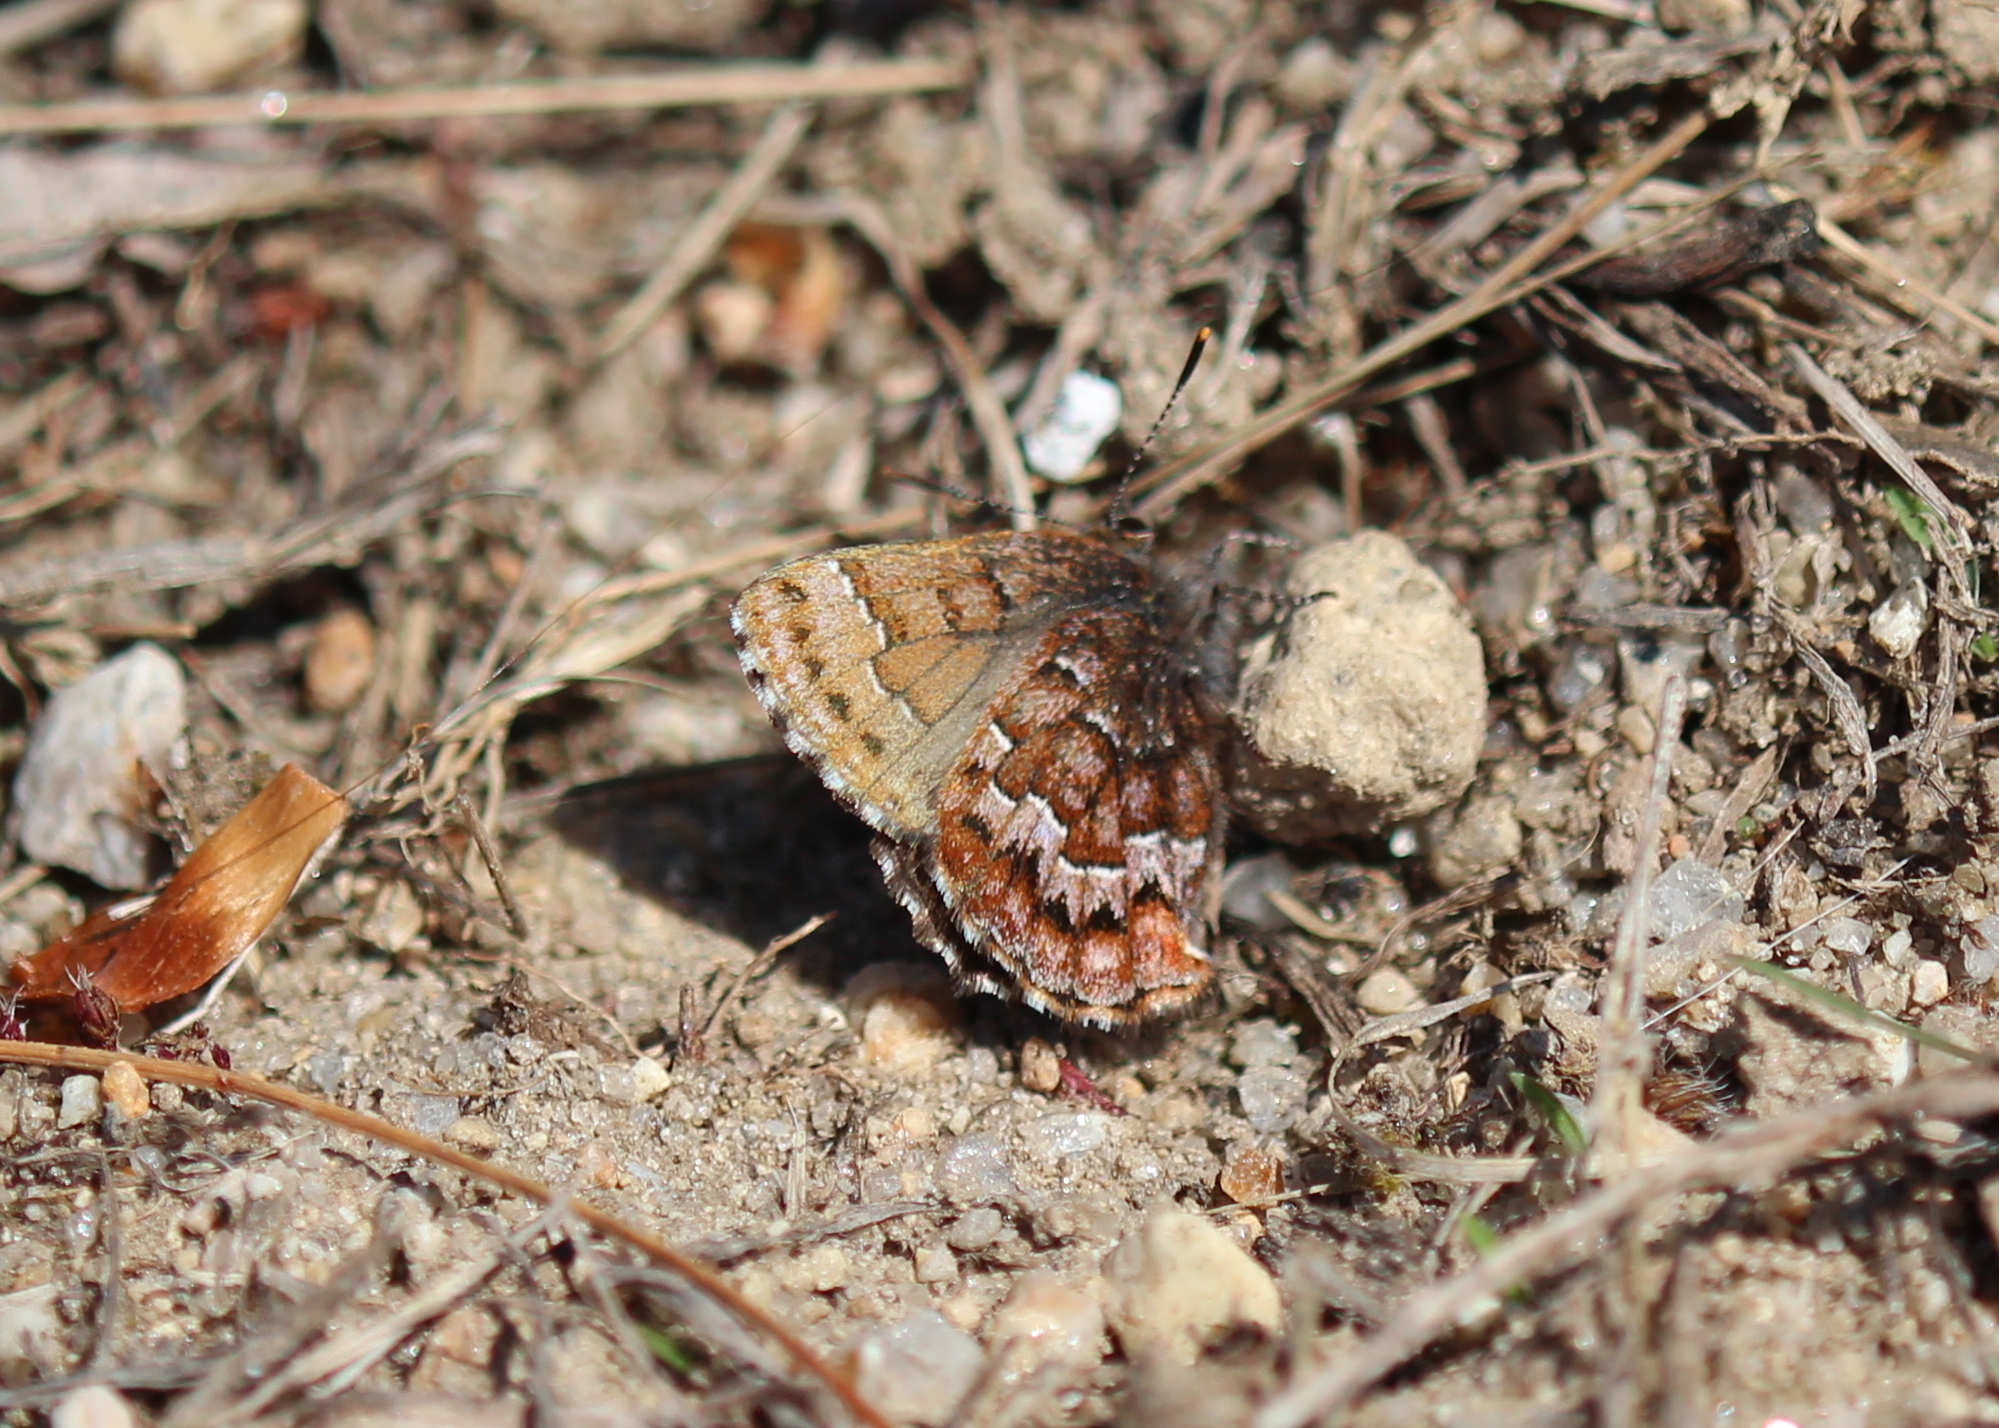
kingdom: Animalia
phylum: Arthropoda
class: Insecta
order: Lepidoptera
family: Lycaenidae
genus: Incisalia
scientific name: Incisalia niphon
